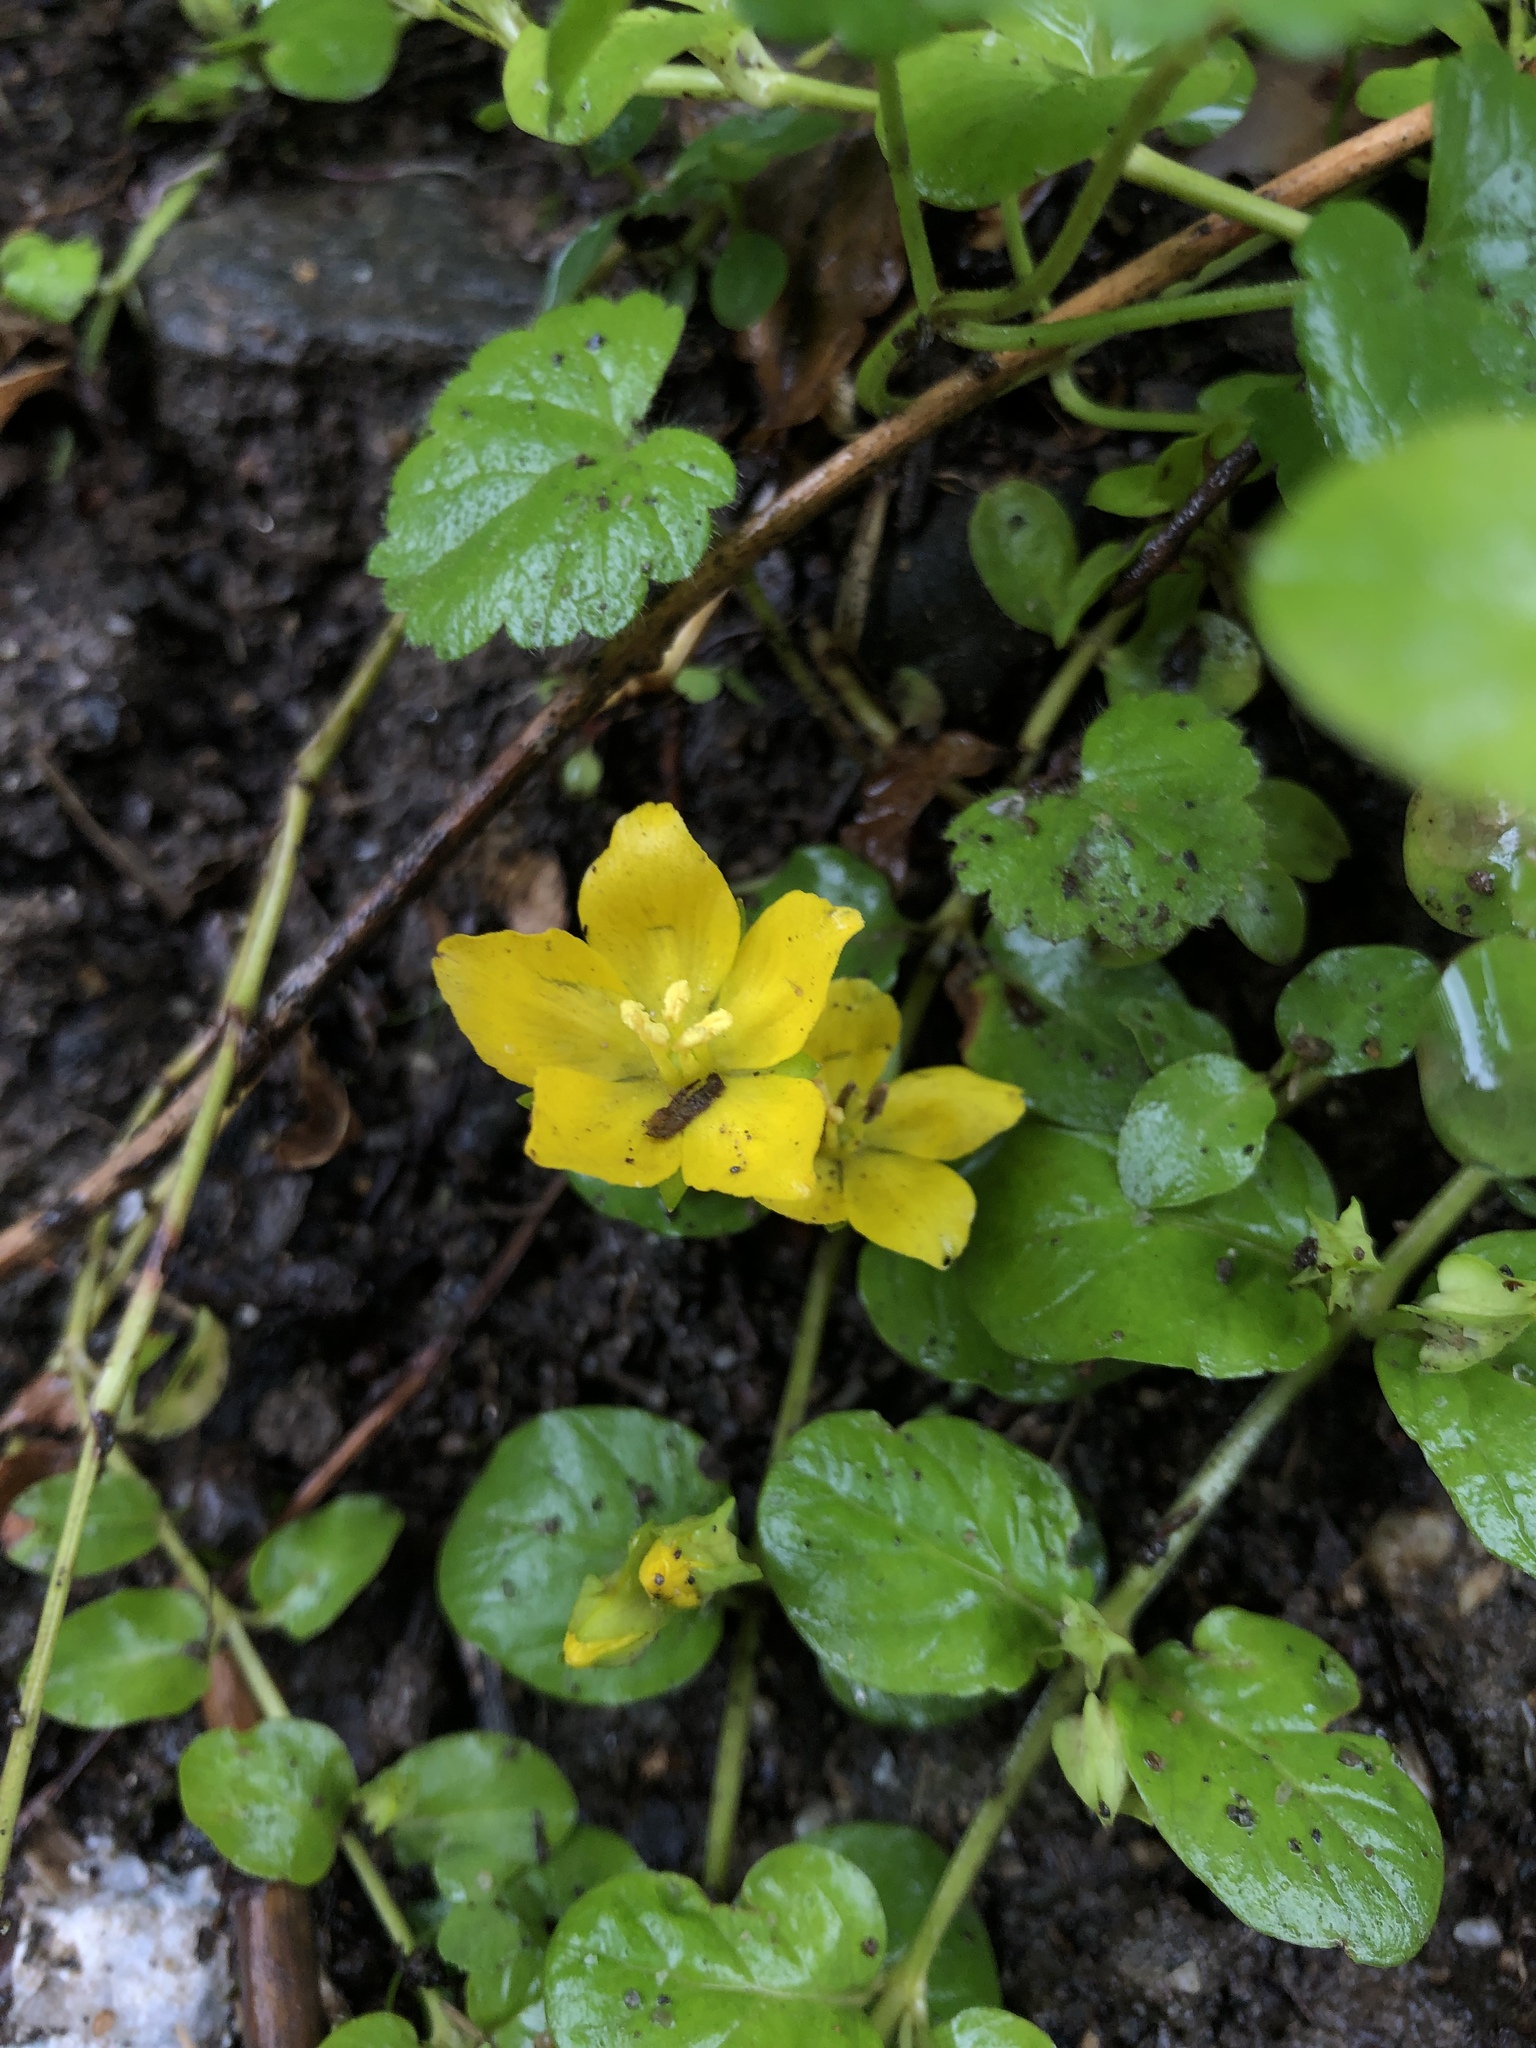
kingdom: Plantae
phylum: Tracheophyta
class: Magnoliopsida
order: Ericales
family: Primulaceae
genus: Lysimachia
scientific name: Lysimachia nummularia
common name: Moneywort
